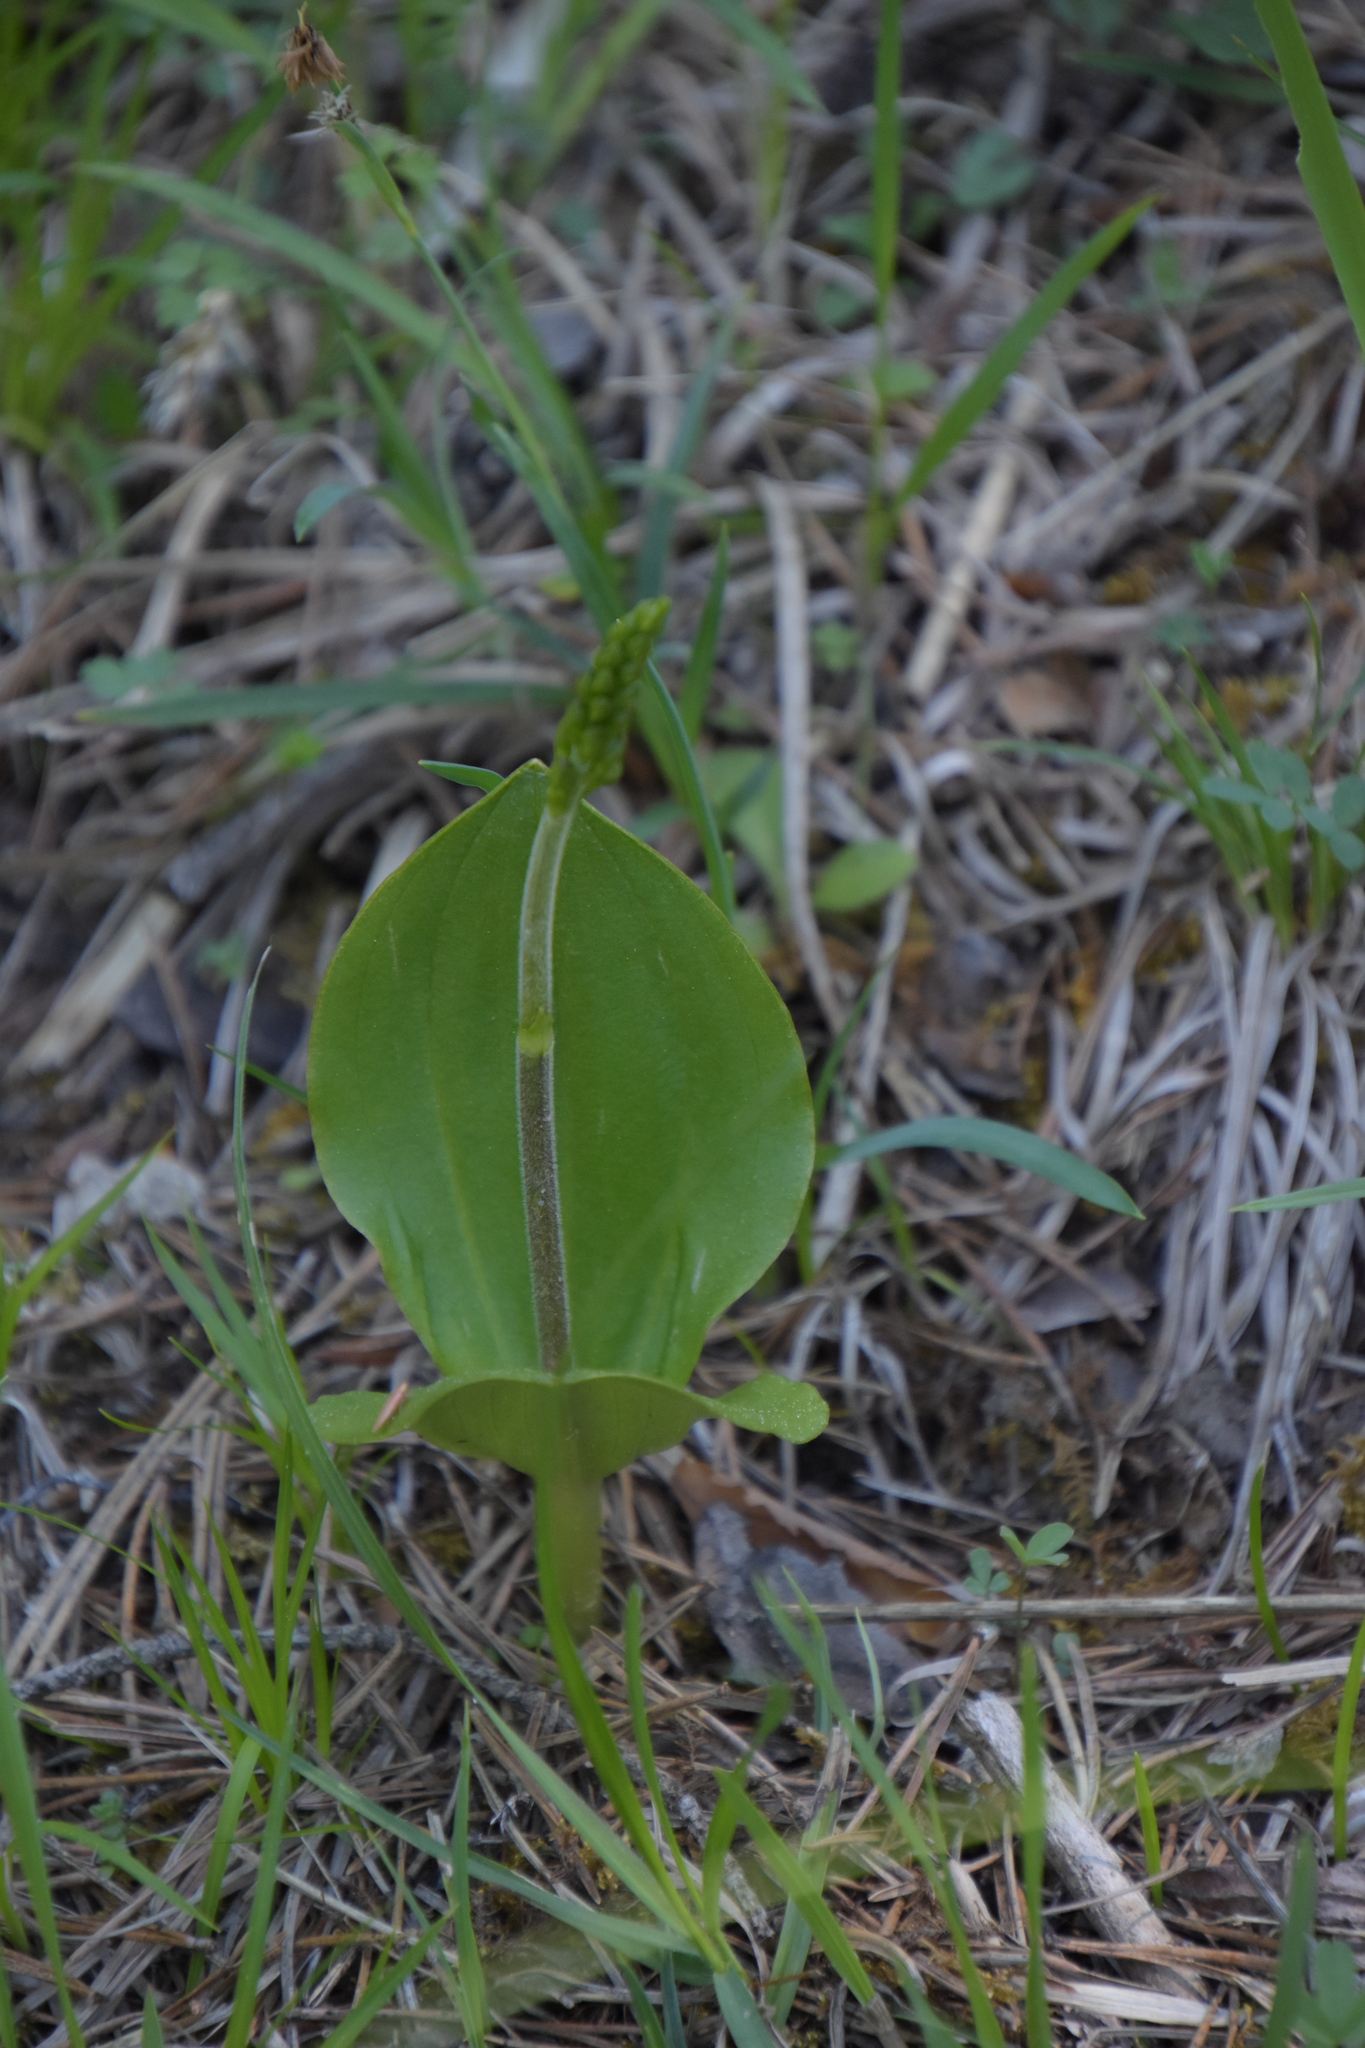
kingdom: Plantae
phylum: Tracheophyta
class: Liliopsida
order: Asparagales
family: Orchidaceae
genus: Neottia
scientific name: Neottia ovata
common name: Common twayblade
